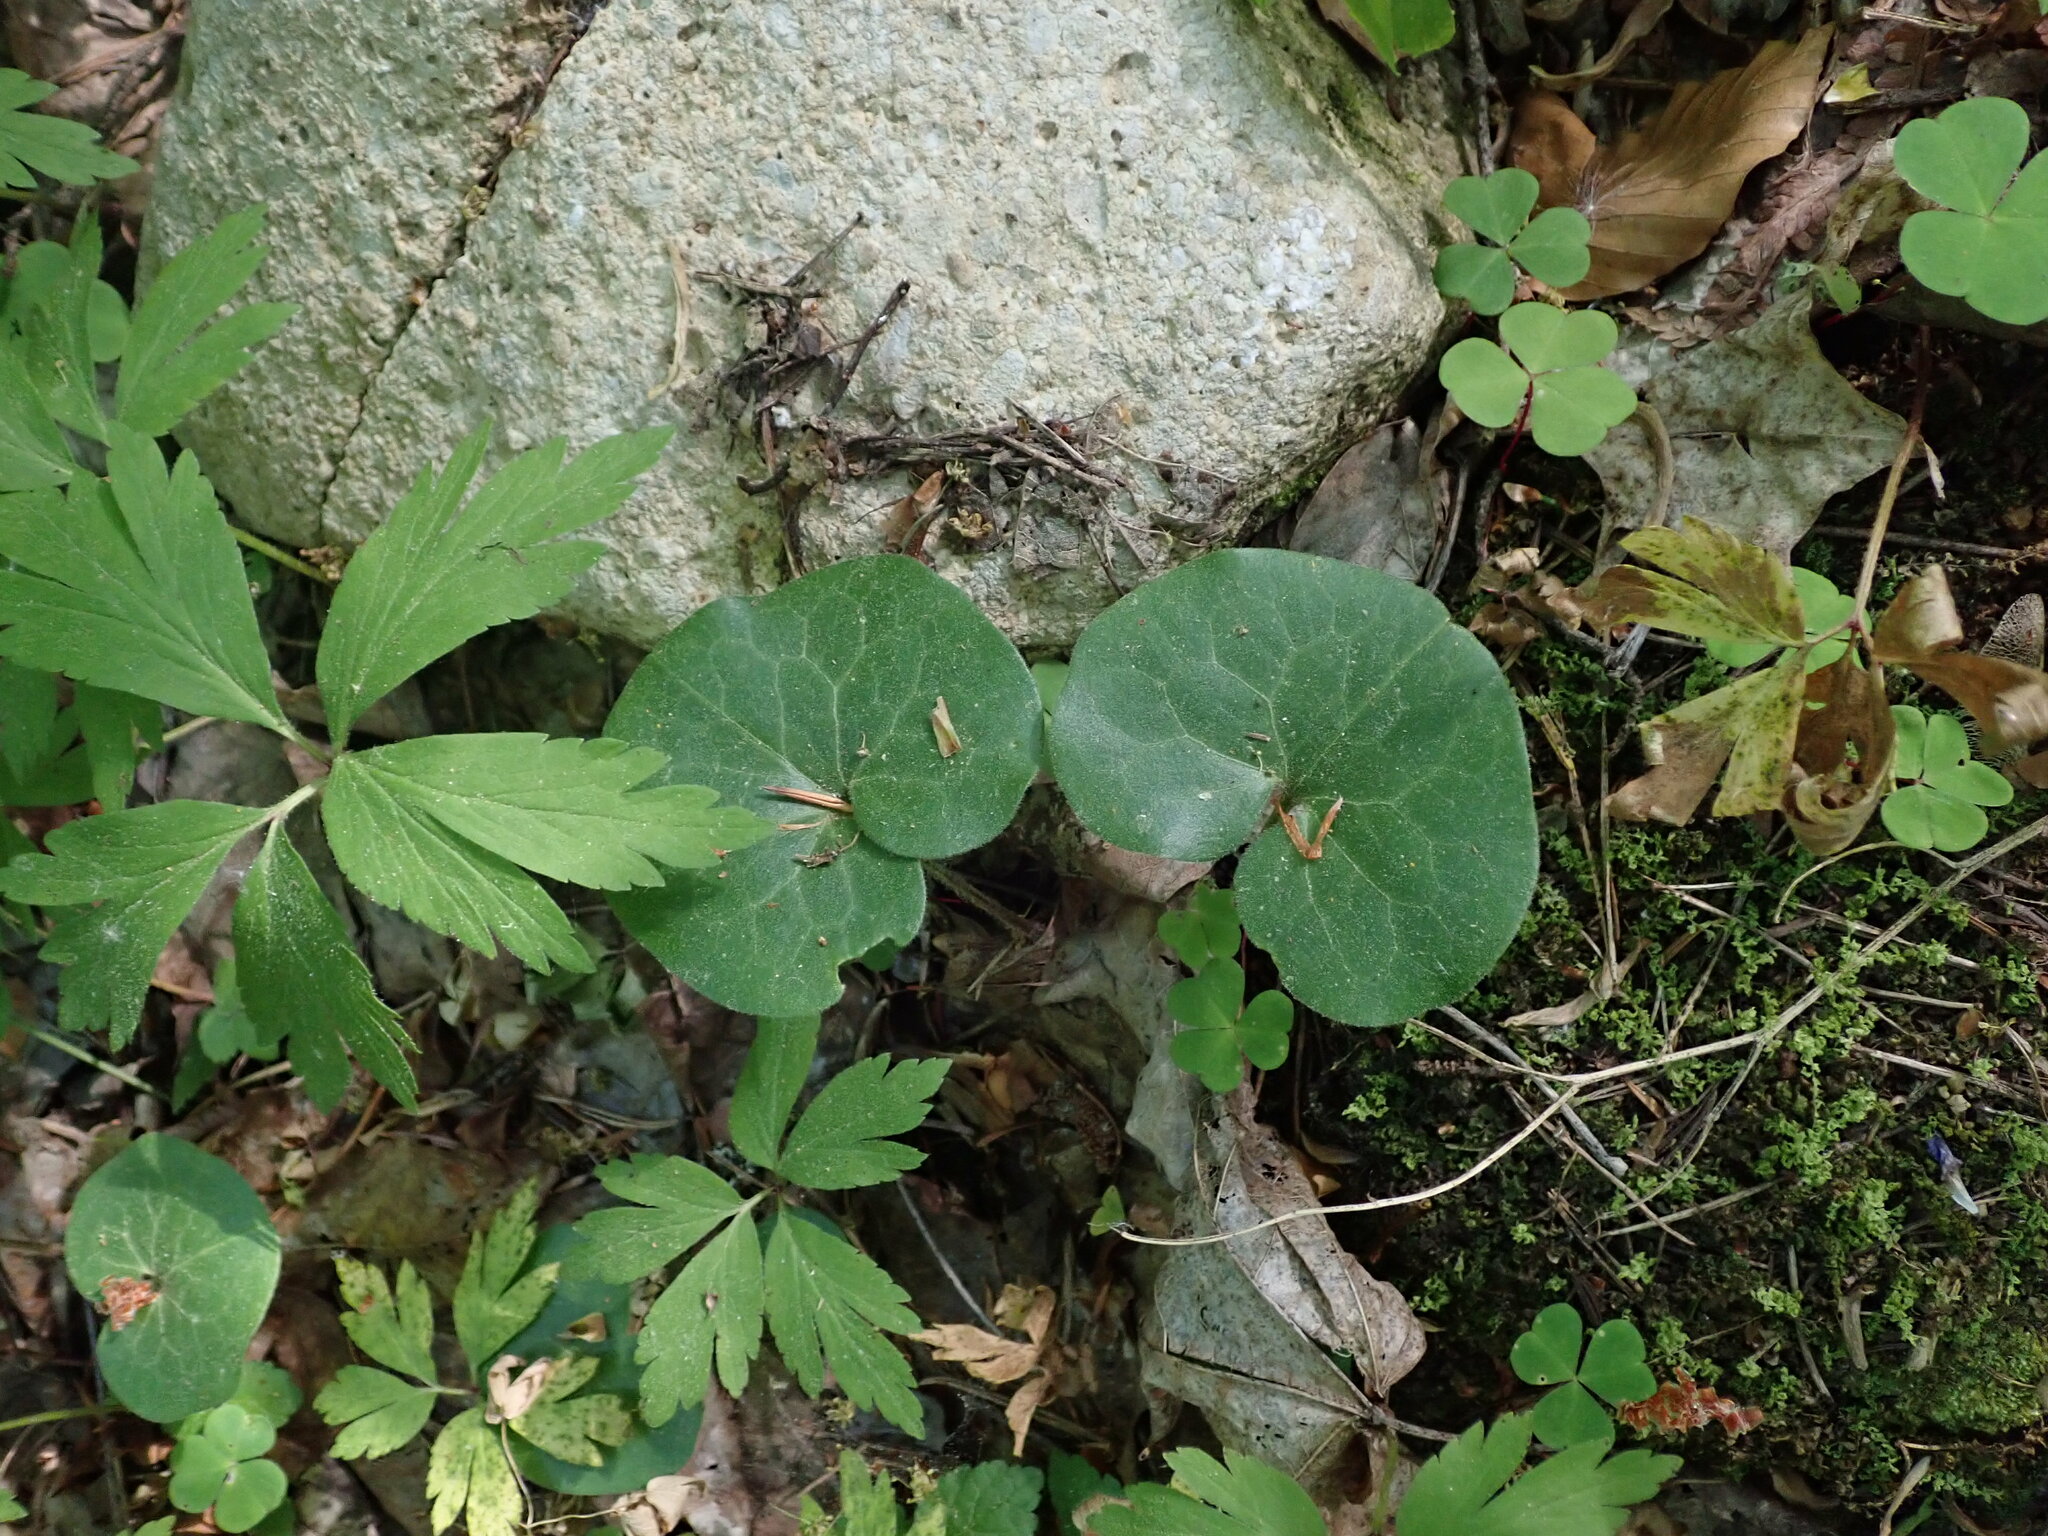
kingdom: Plantae
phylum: Tracheophyta
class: Magnoliopsida
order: Piperales
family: Aristolochiaceae
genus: Asarum
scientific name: Asarum europaeum
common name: Asarabacca
